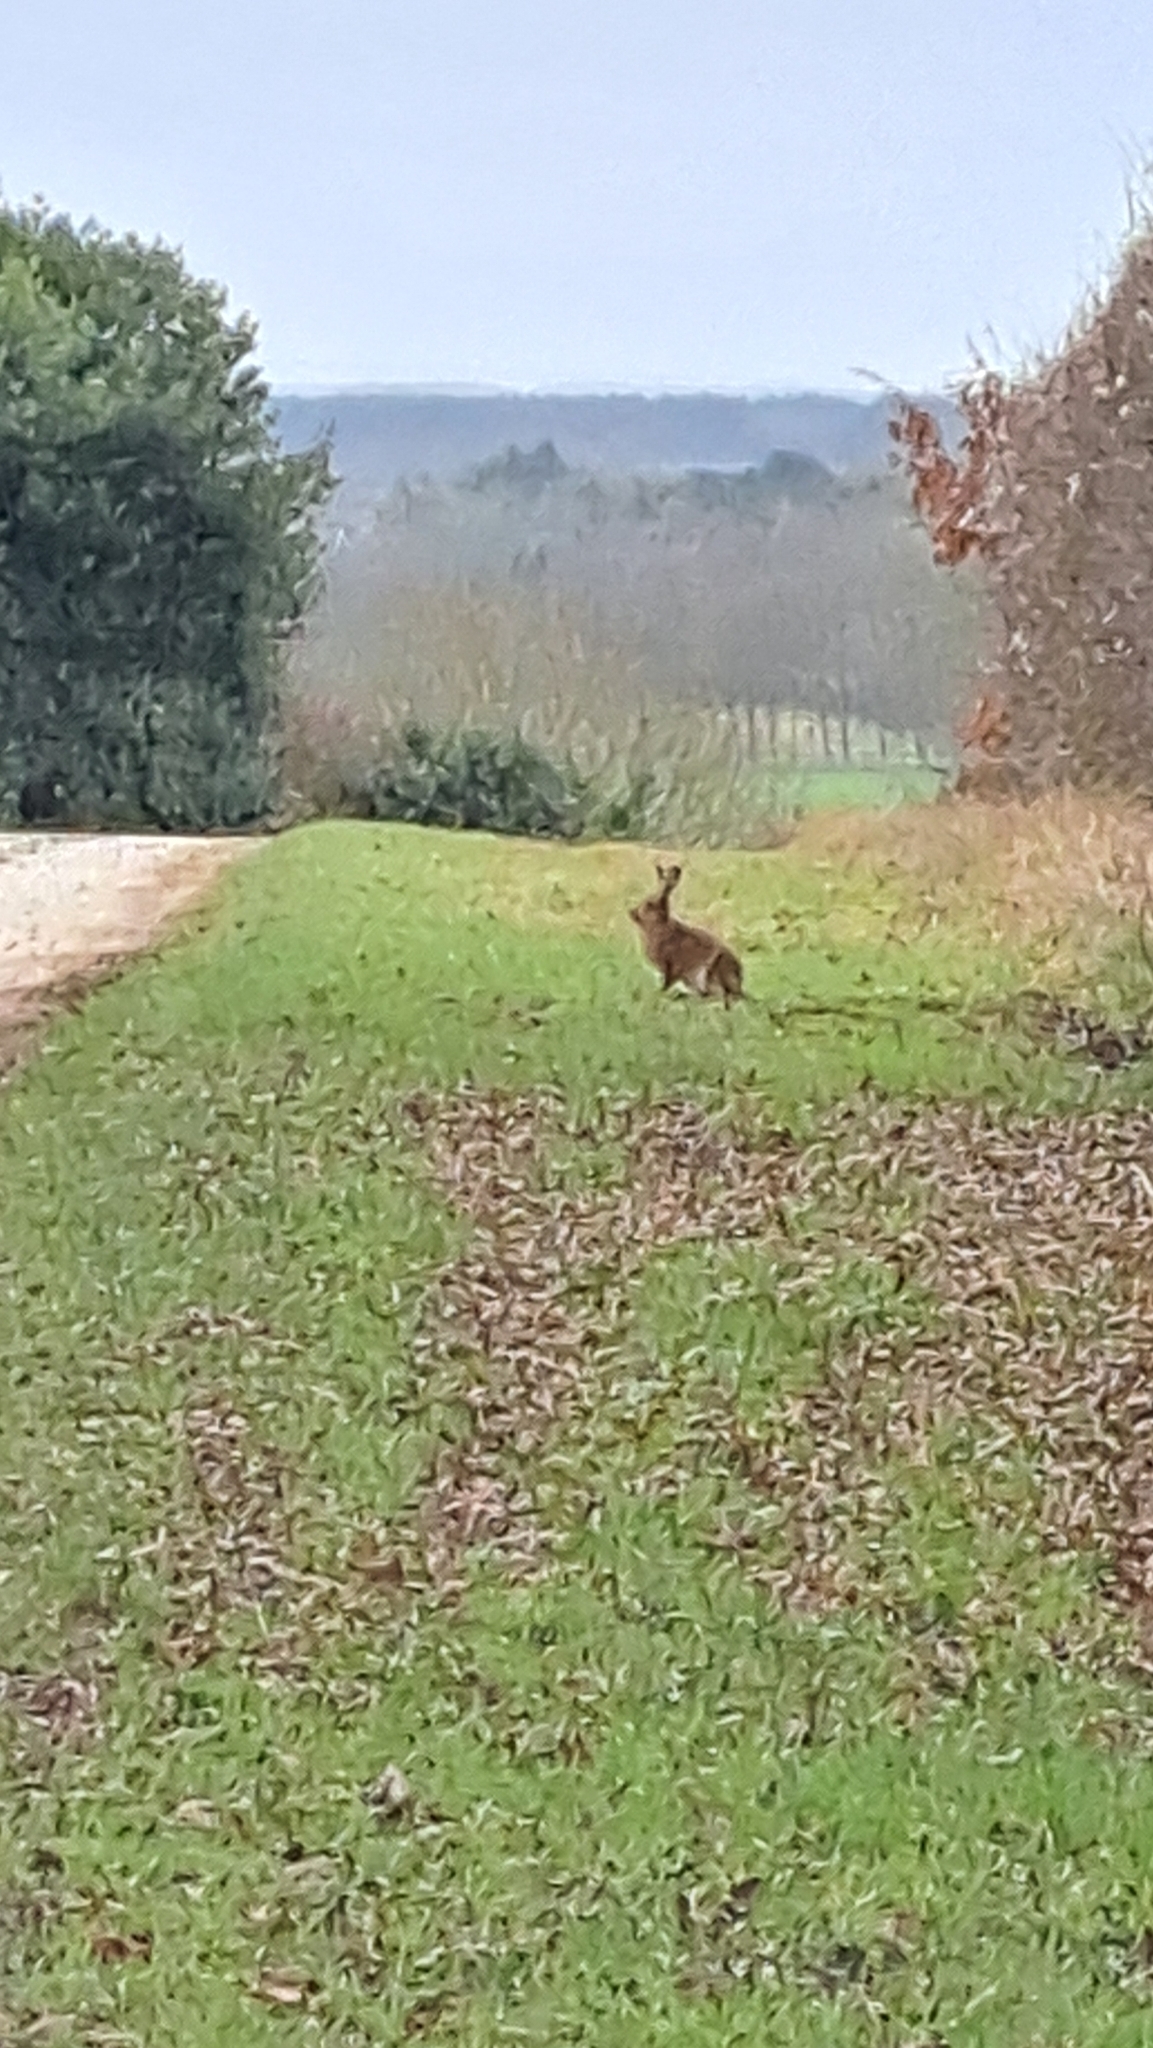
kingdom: Animalia
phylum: Chordata
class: Mammalia
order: Lagomorpha
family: Leporidae
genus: Lepus
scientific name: Lepus europaeus
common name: European hare
